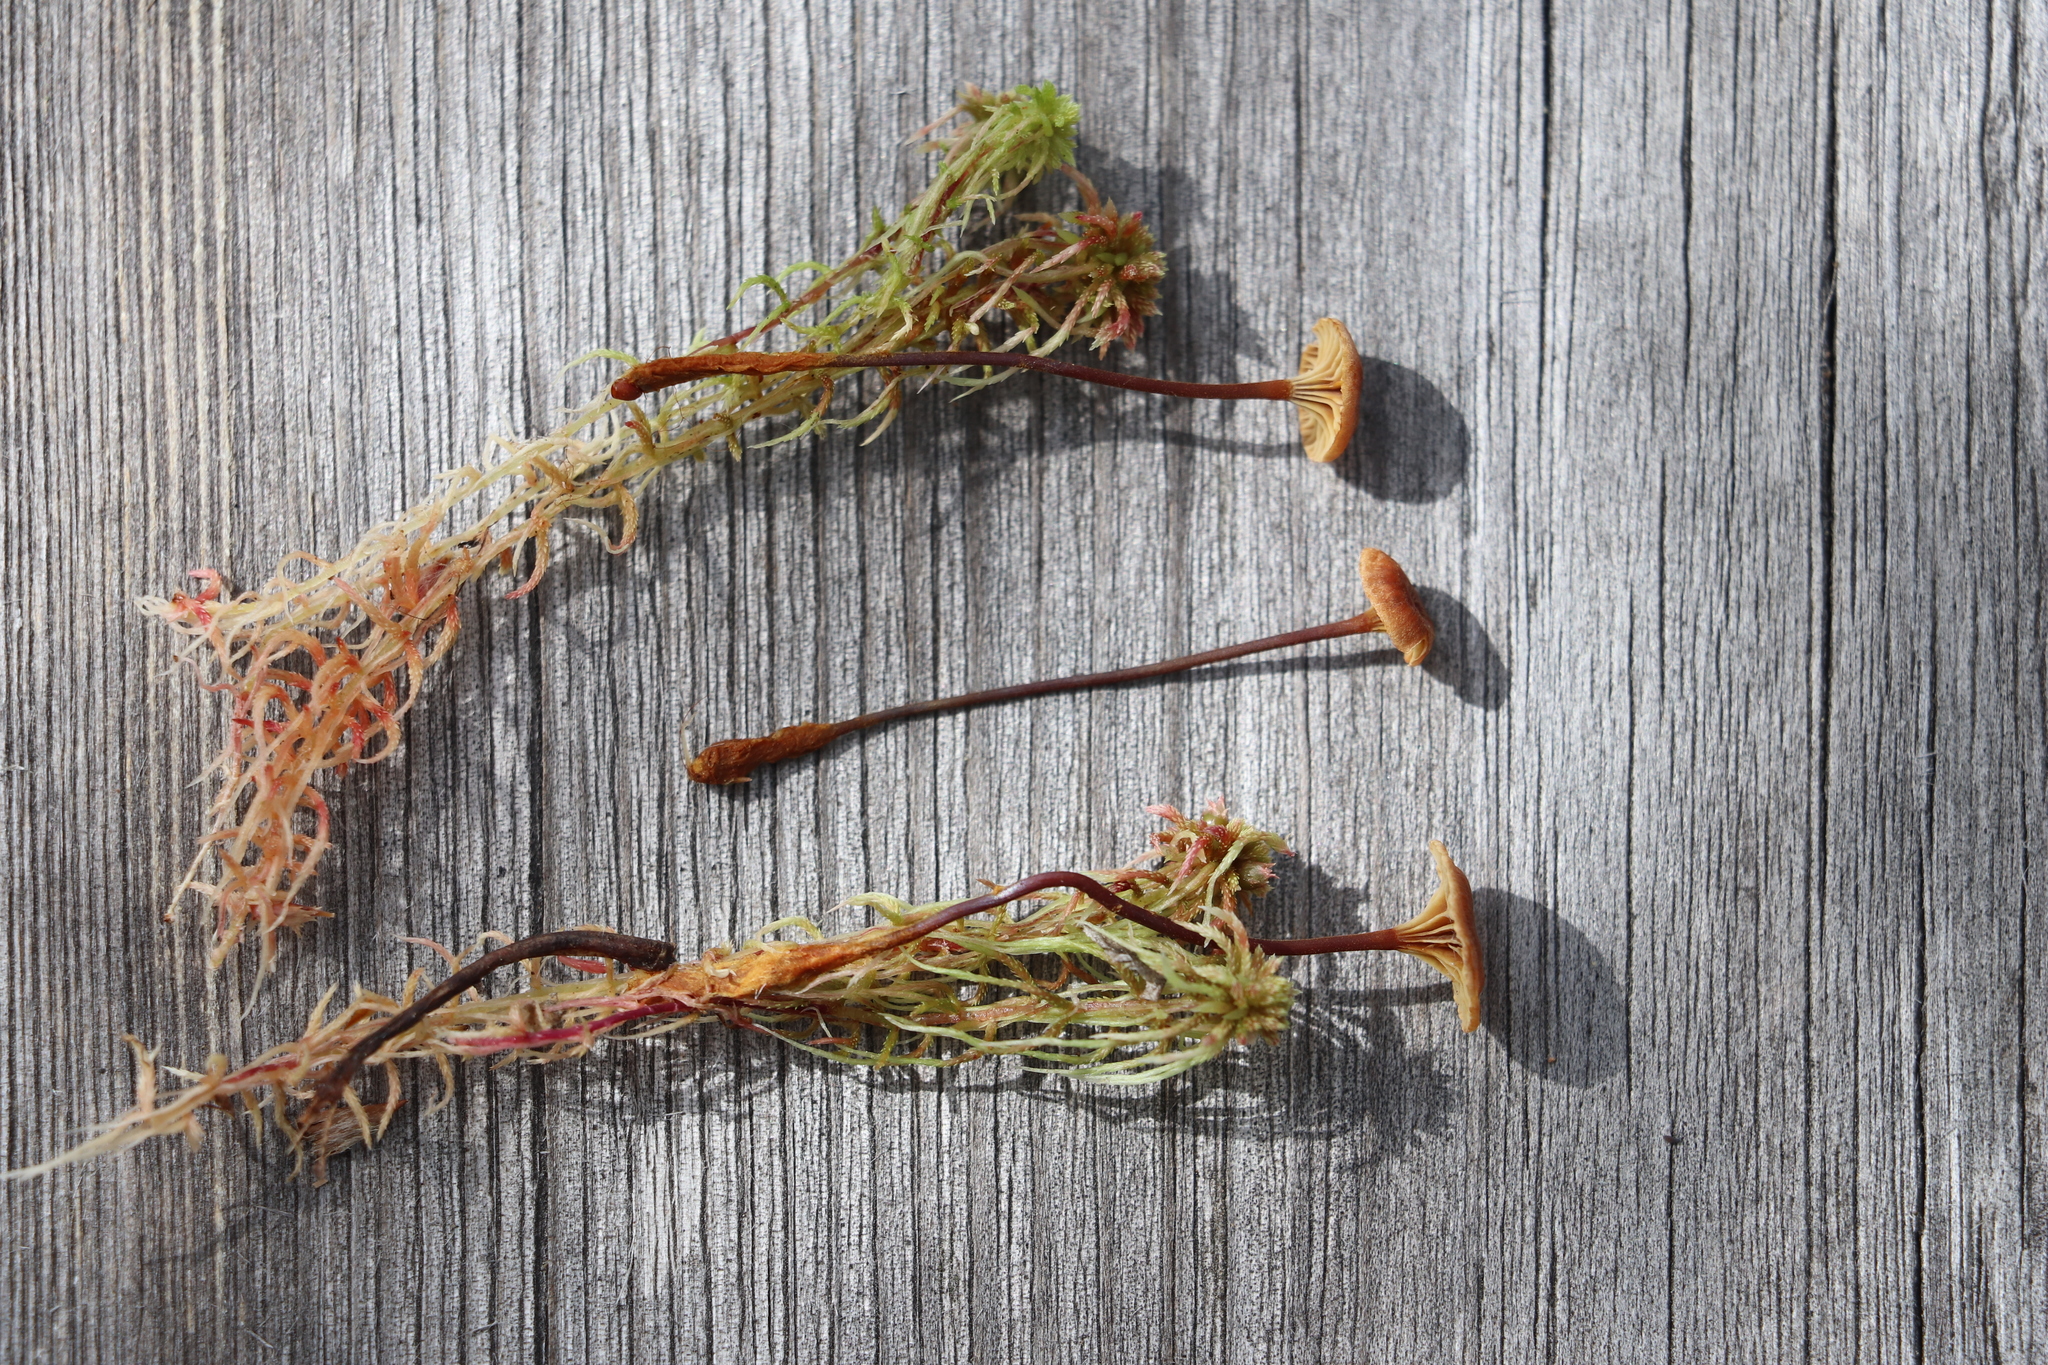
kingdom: Fungi
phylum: Basidiomycota
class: Agaricomycetes
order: Agaricales
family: Mycenaceae
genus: Xeromphalina
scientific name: Xeromphalina cornui
